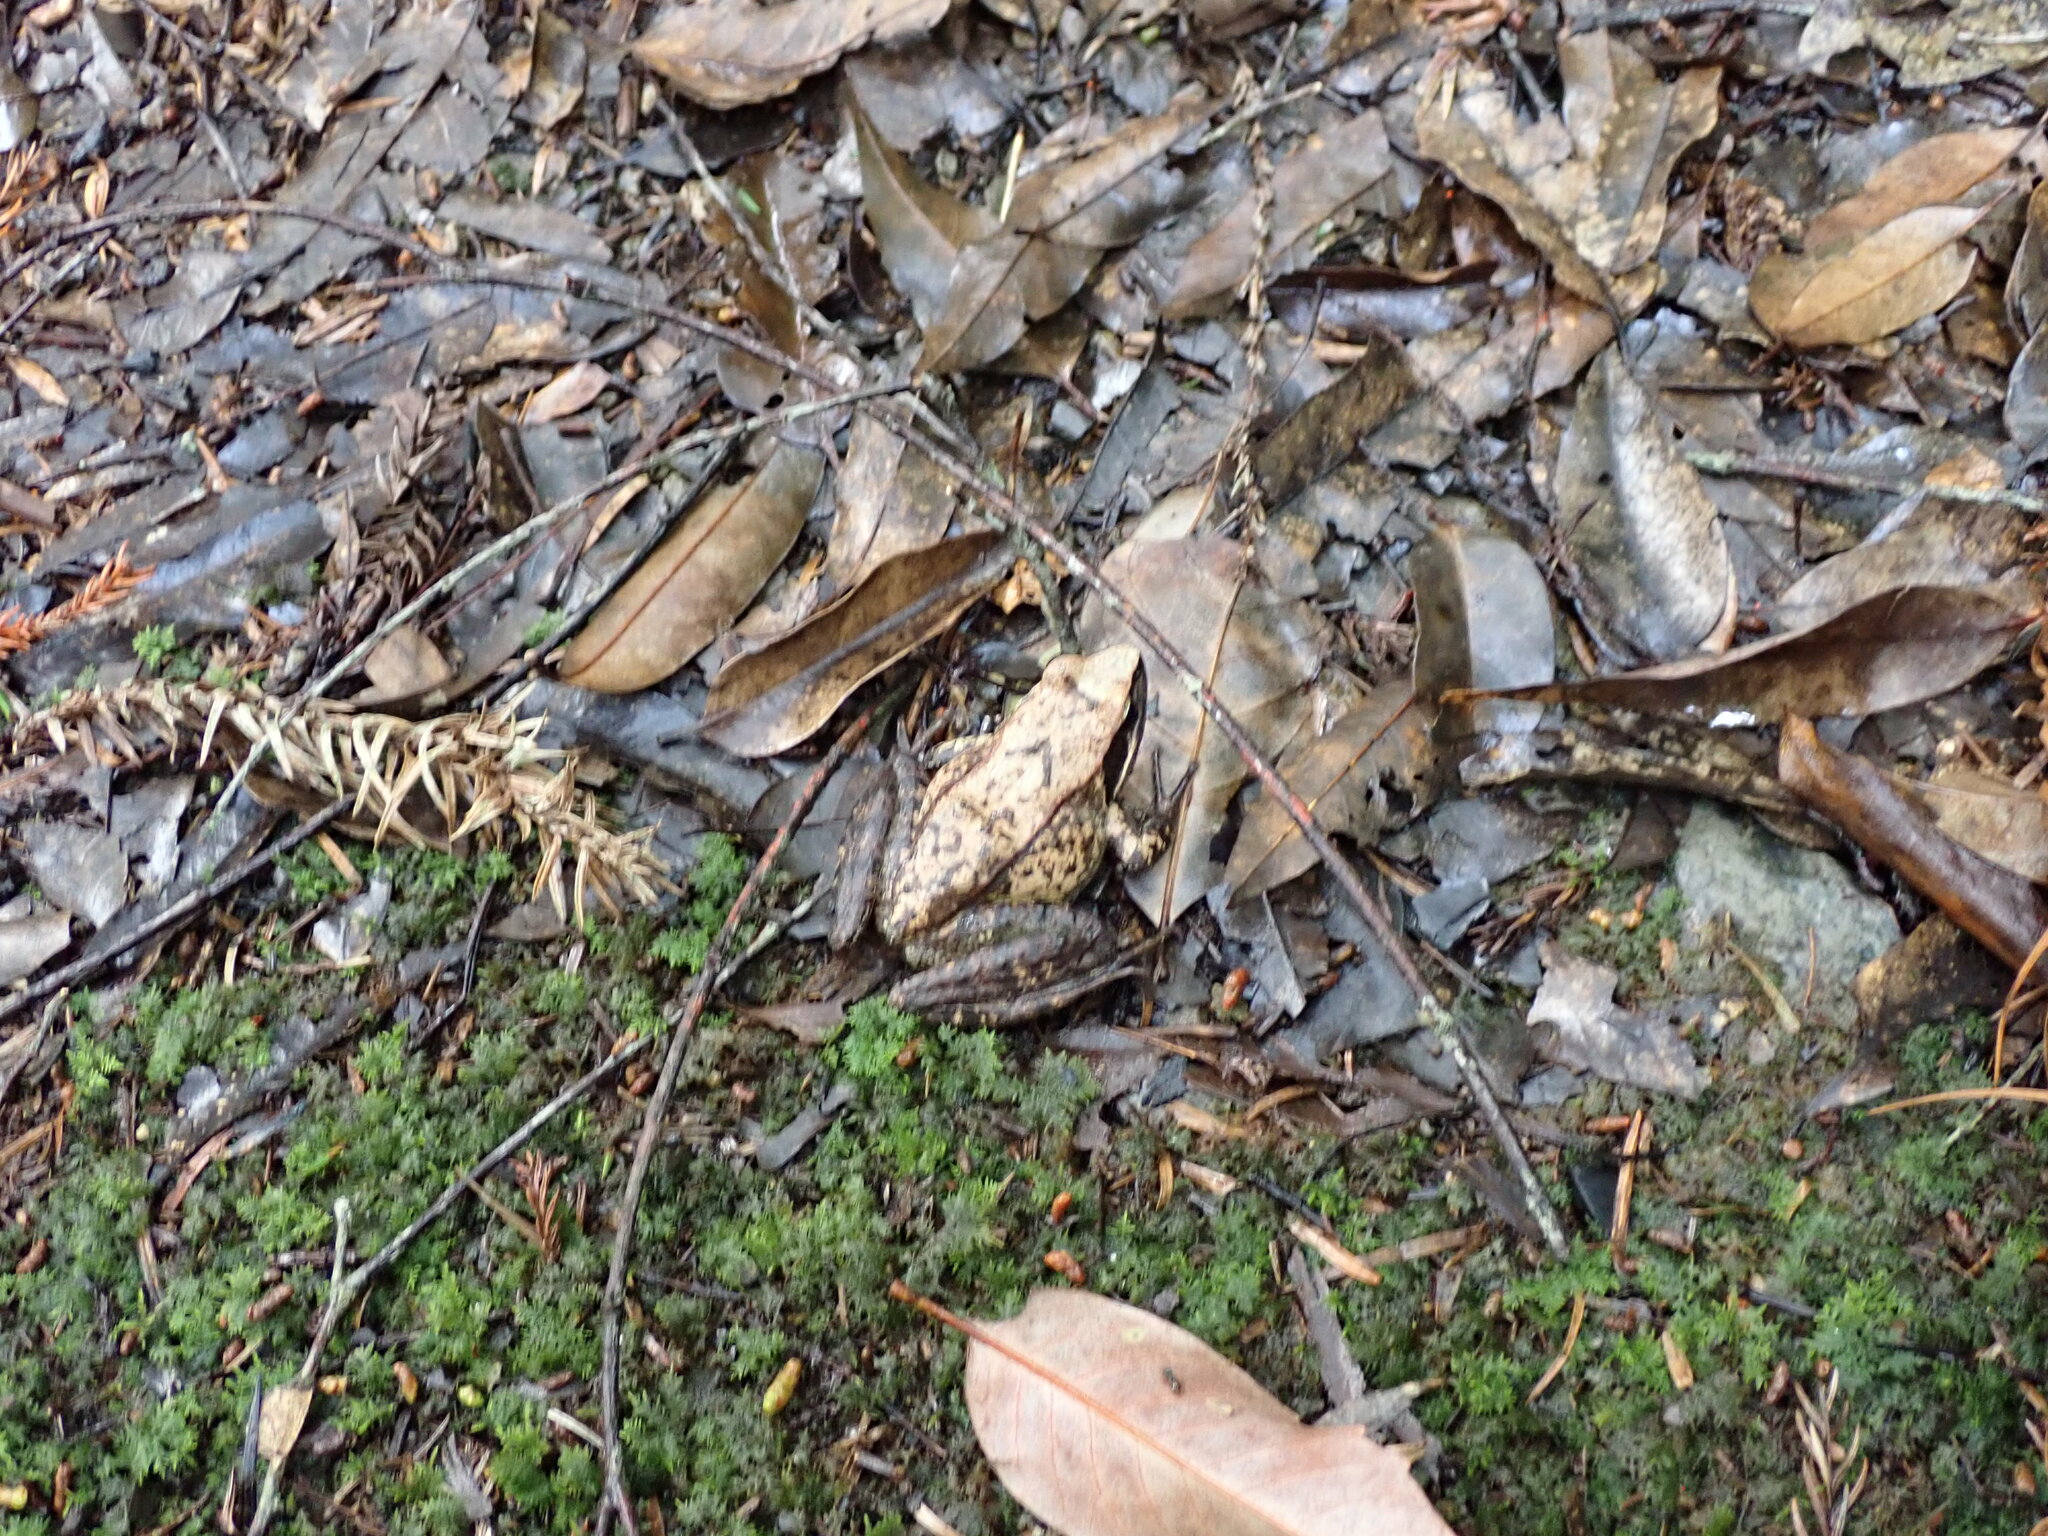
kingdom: Animalia
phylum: Chordata
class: Amphibia
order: Anura
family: Ranidae
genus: Rana
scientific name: Rana sauteri
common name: Kanshirei village frog
